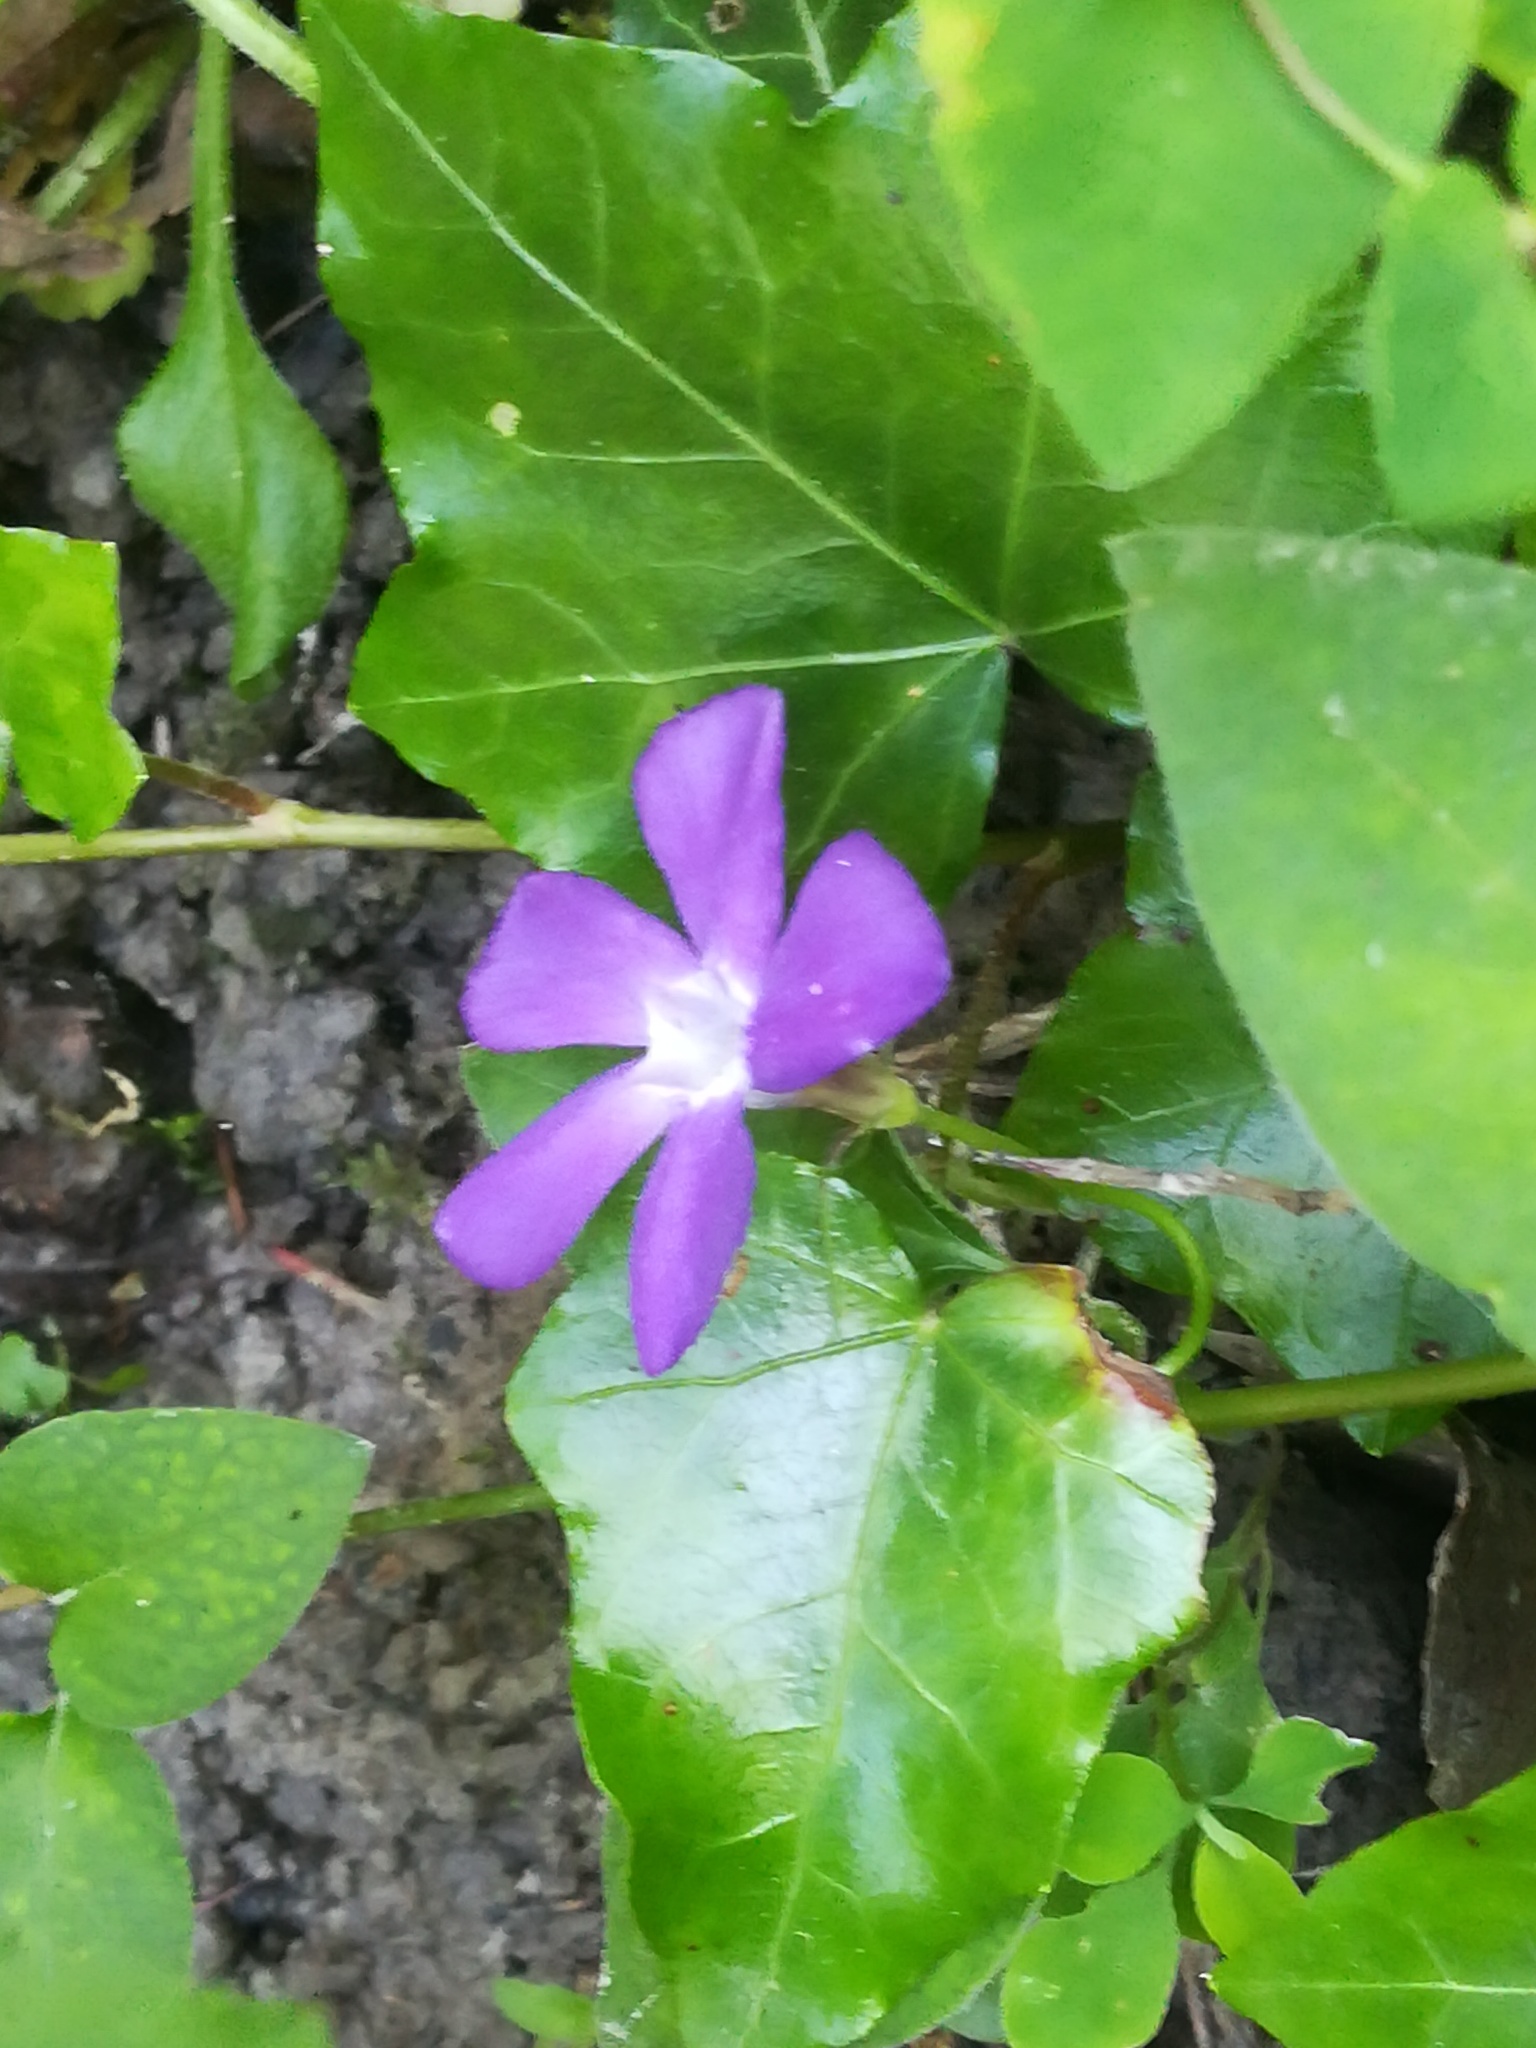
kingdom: Plantae
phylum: Tracheophyta
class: Magnoliopsida
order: Gentianales
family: Apocynaceae
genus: Vinca
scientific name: Vinca major
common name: Greater periwinkle
